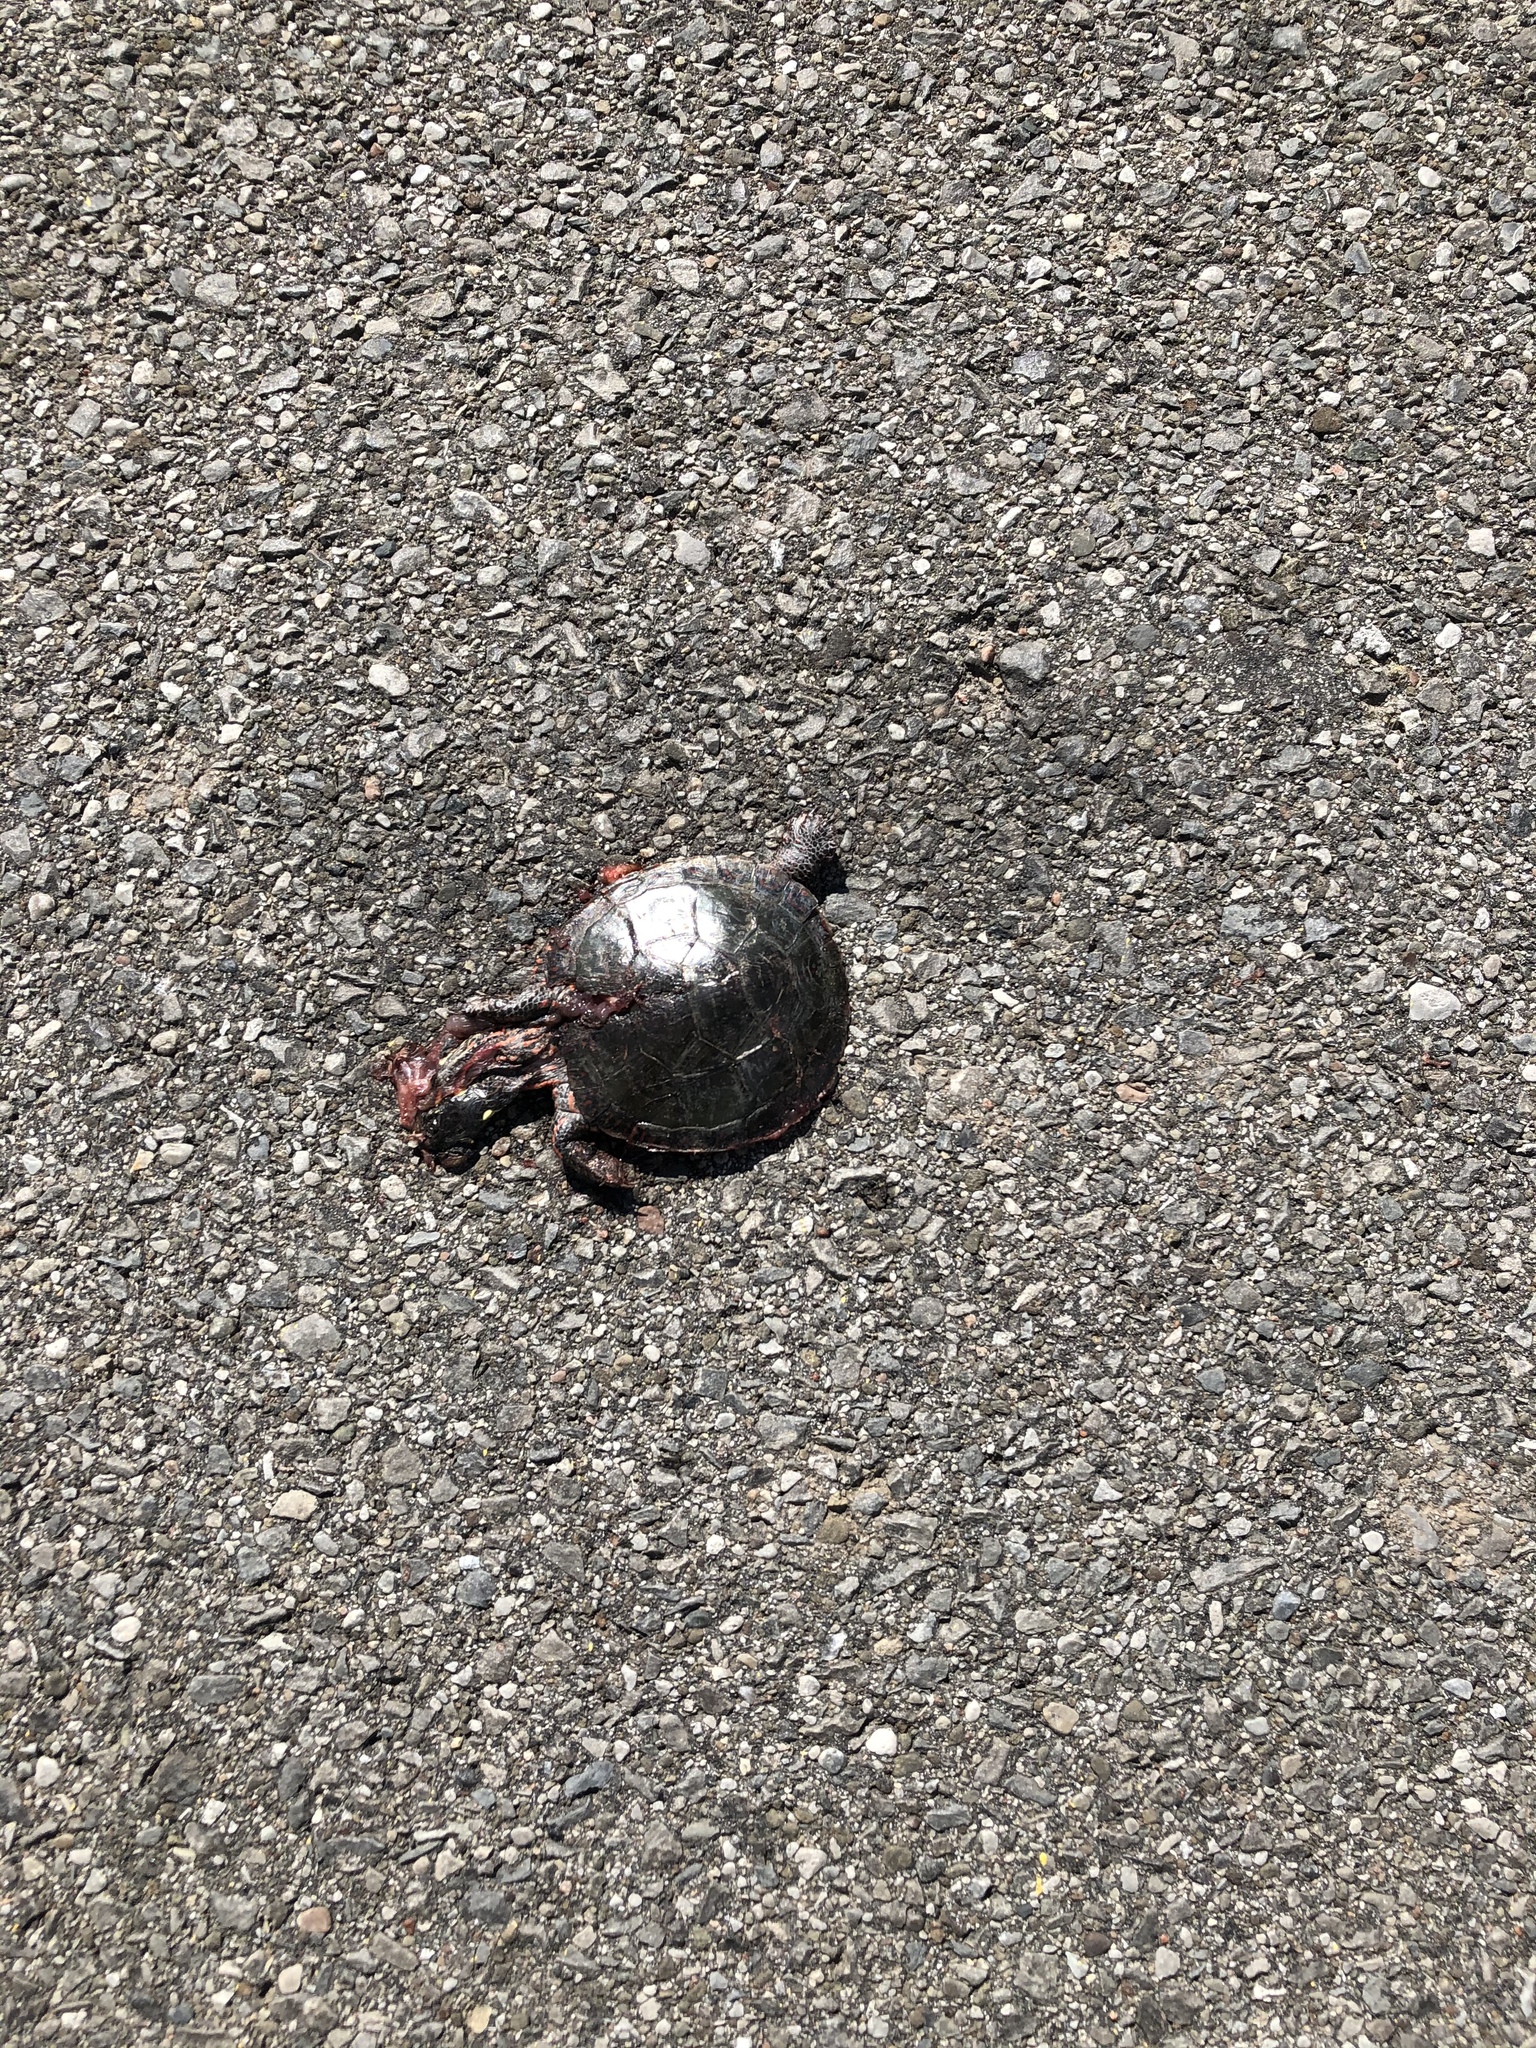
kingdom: Animalia
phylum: Chordata
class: Testudines
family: Emydidae
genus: Chrysemys
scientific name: Chrysemys picta
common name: Painted turtle
